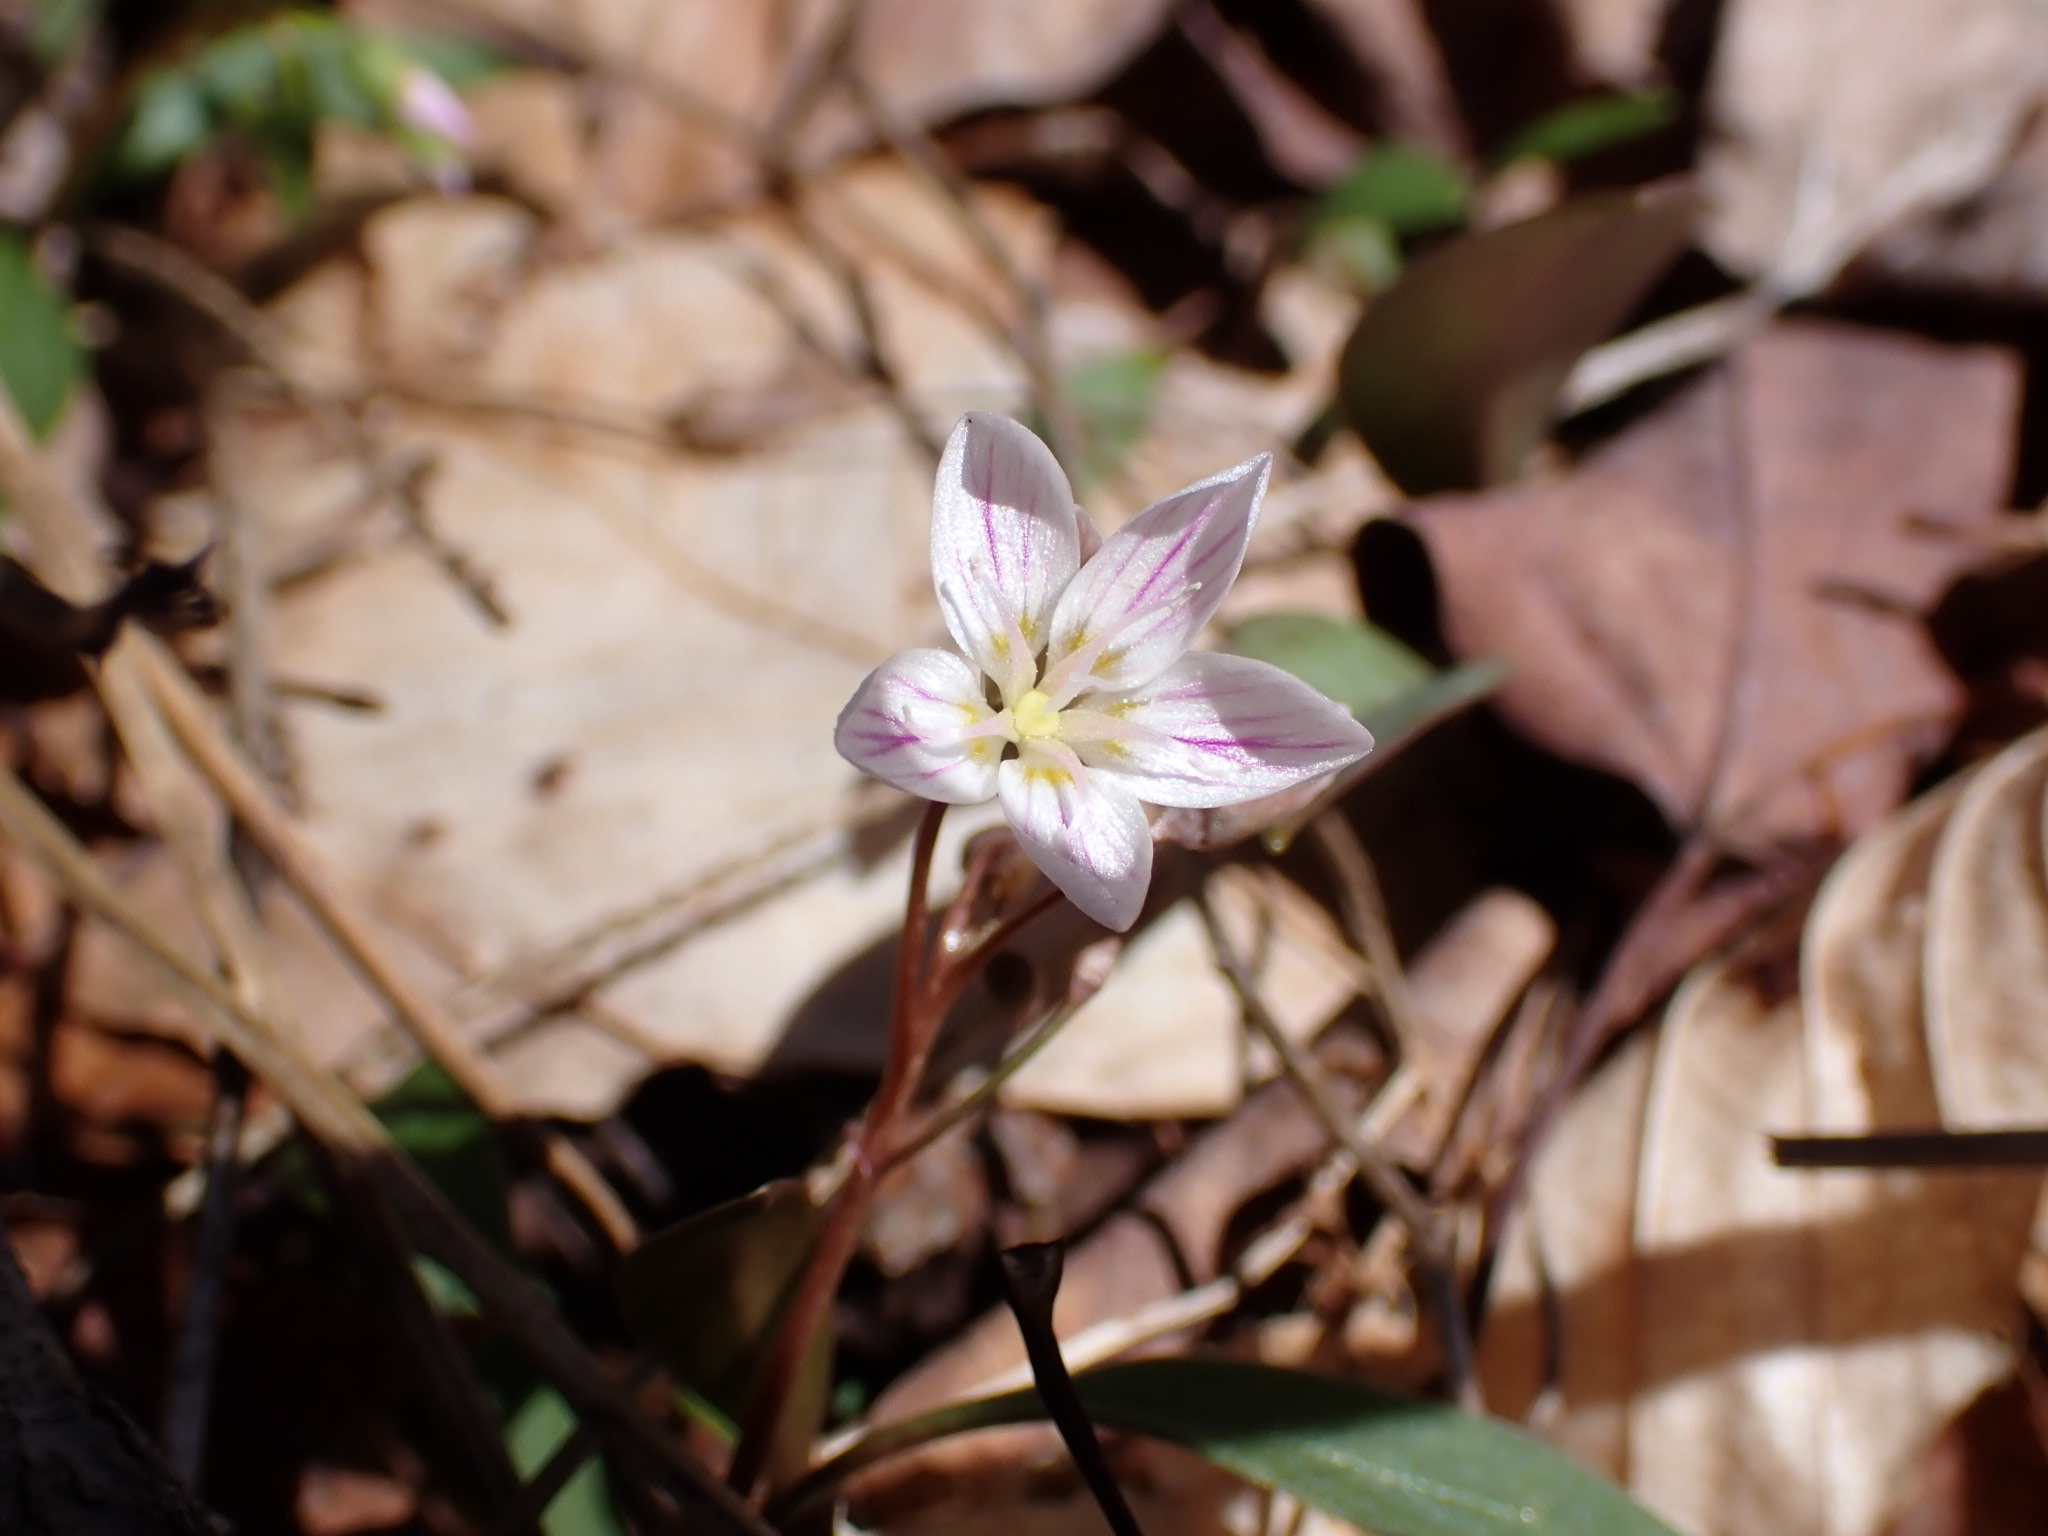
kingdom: Plantae
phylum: Tracheophyta
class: Magnoliopsida
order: Caryophyllales
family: Montiaceae
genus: Claytonia
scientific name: Claytonia caroliniana
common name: Carolina spring beauty
